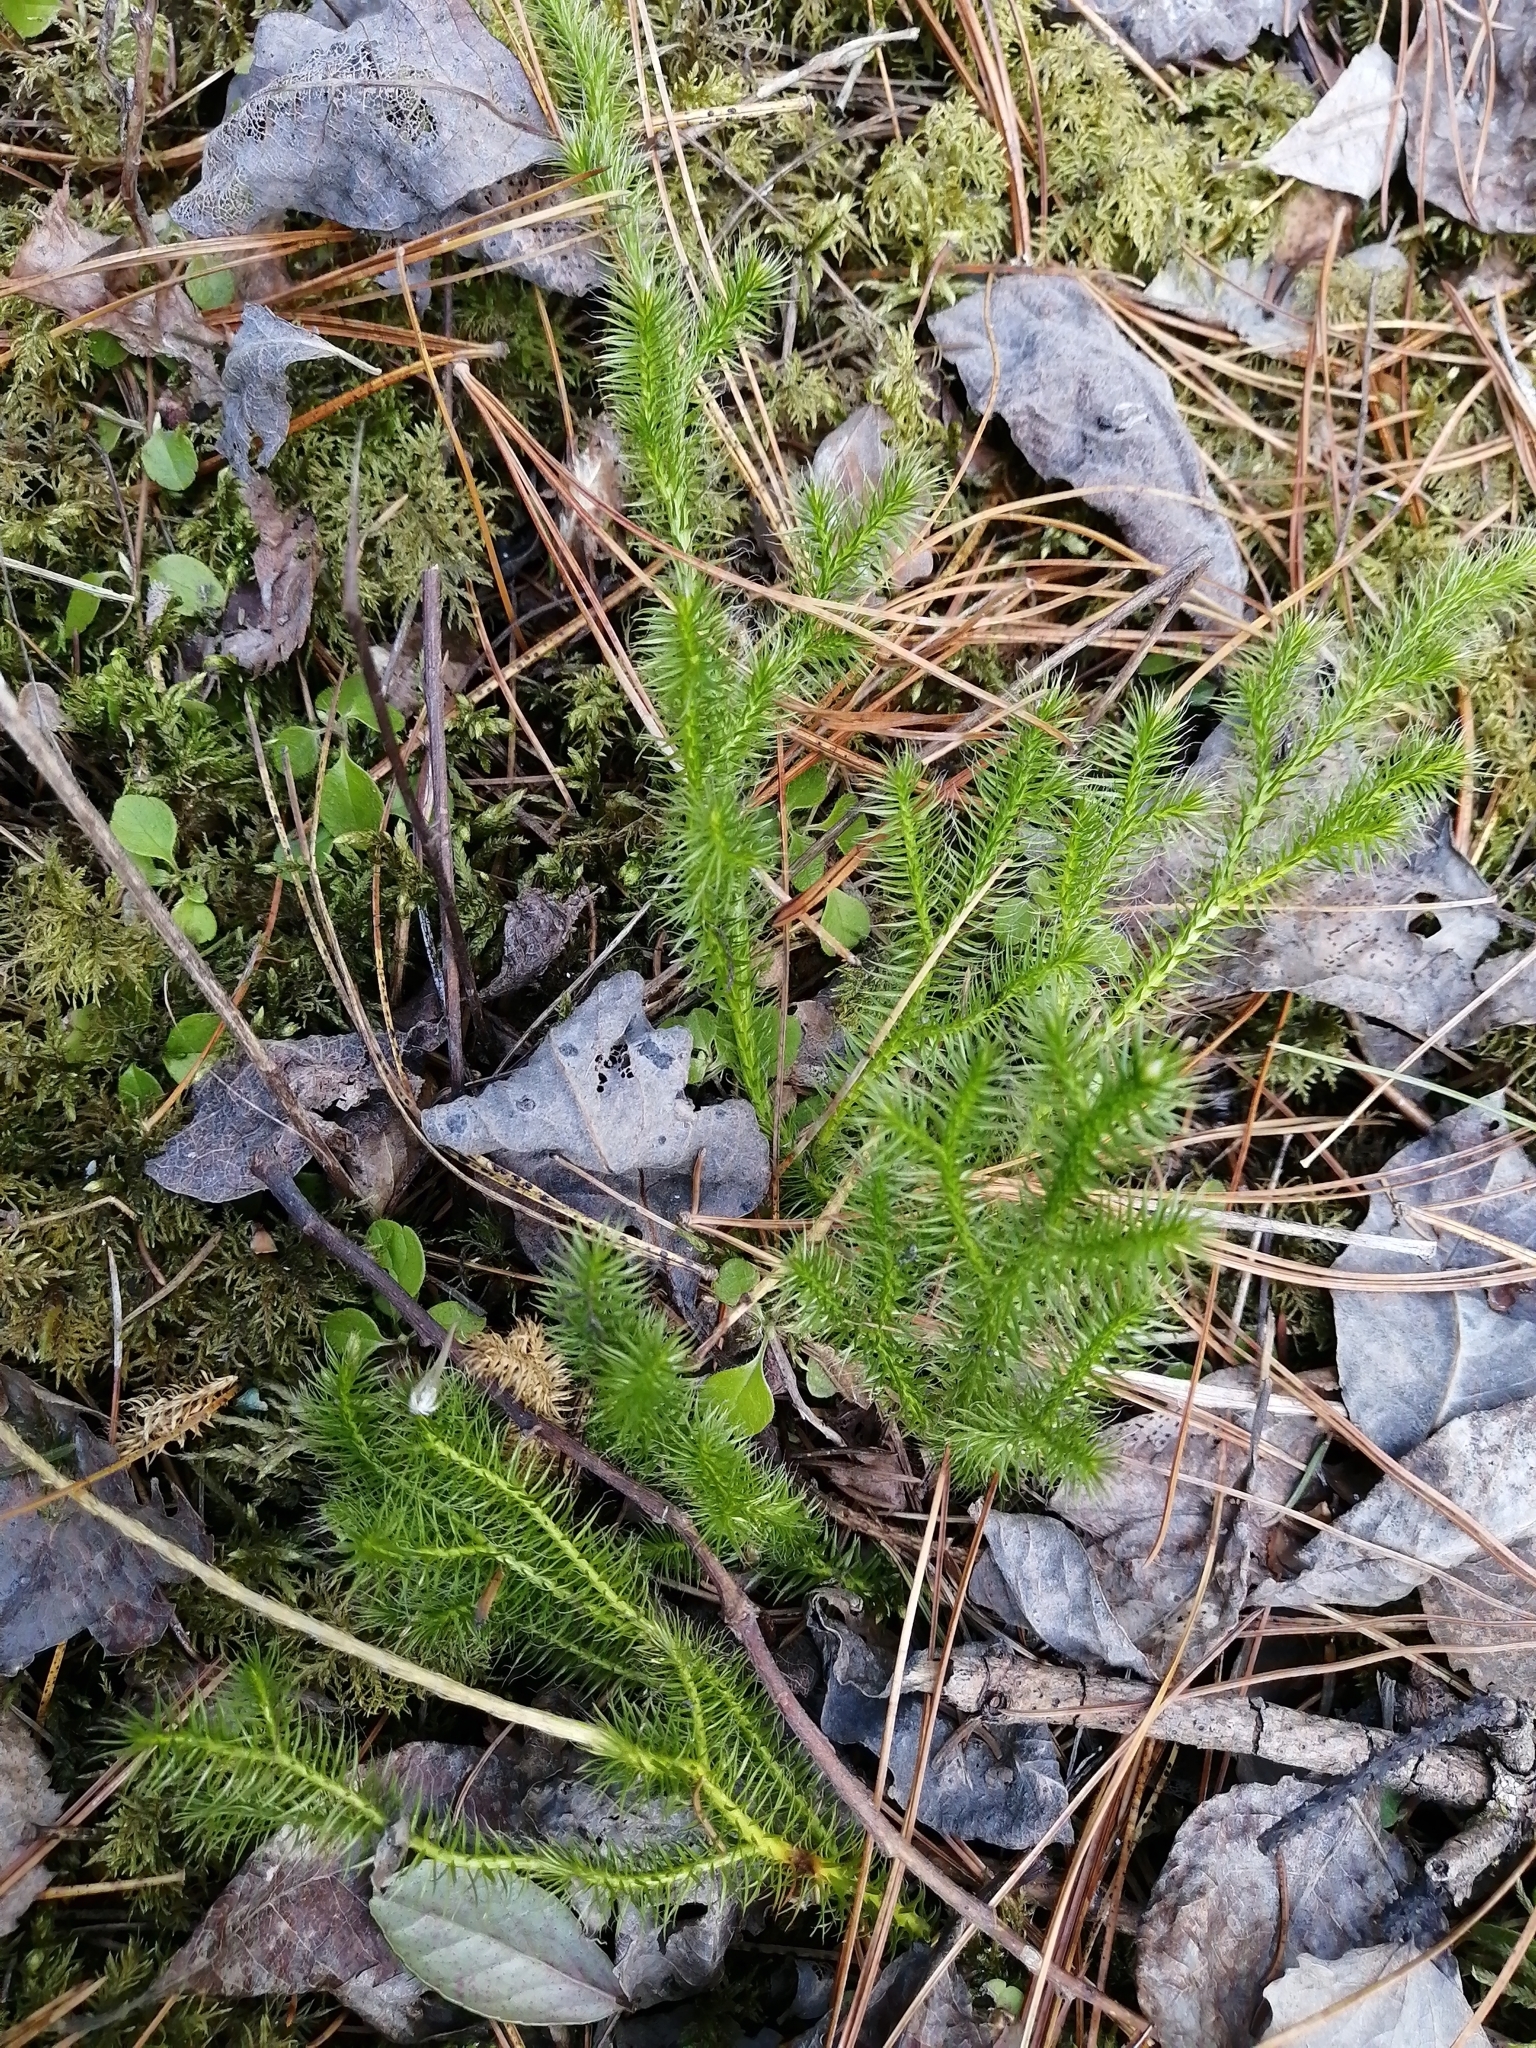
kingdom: Plantae
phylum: Tracheophyta
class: Lycopodiopsida
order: Lycopodiales
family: Lycopodiaceae
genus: Lycopodium
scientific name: Lycopodium clavatum
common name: Stag's-horn clubmoss
